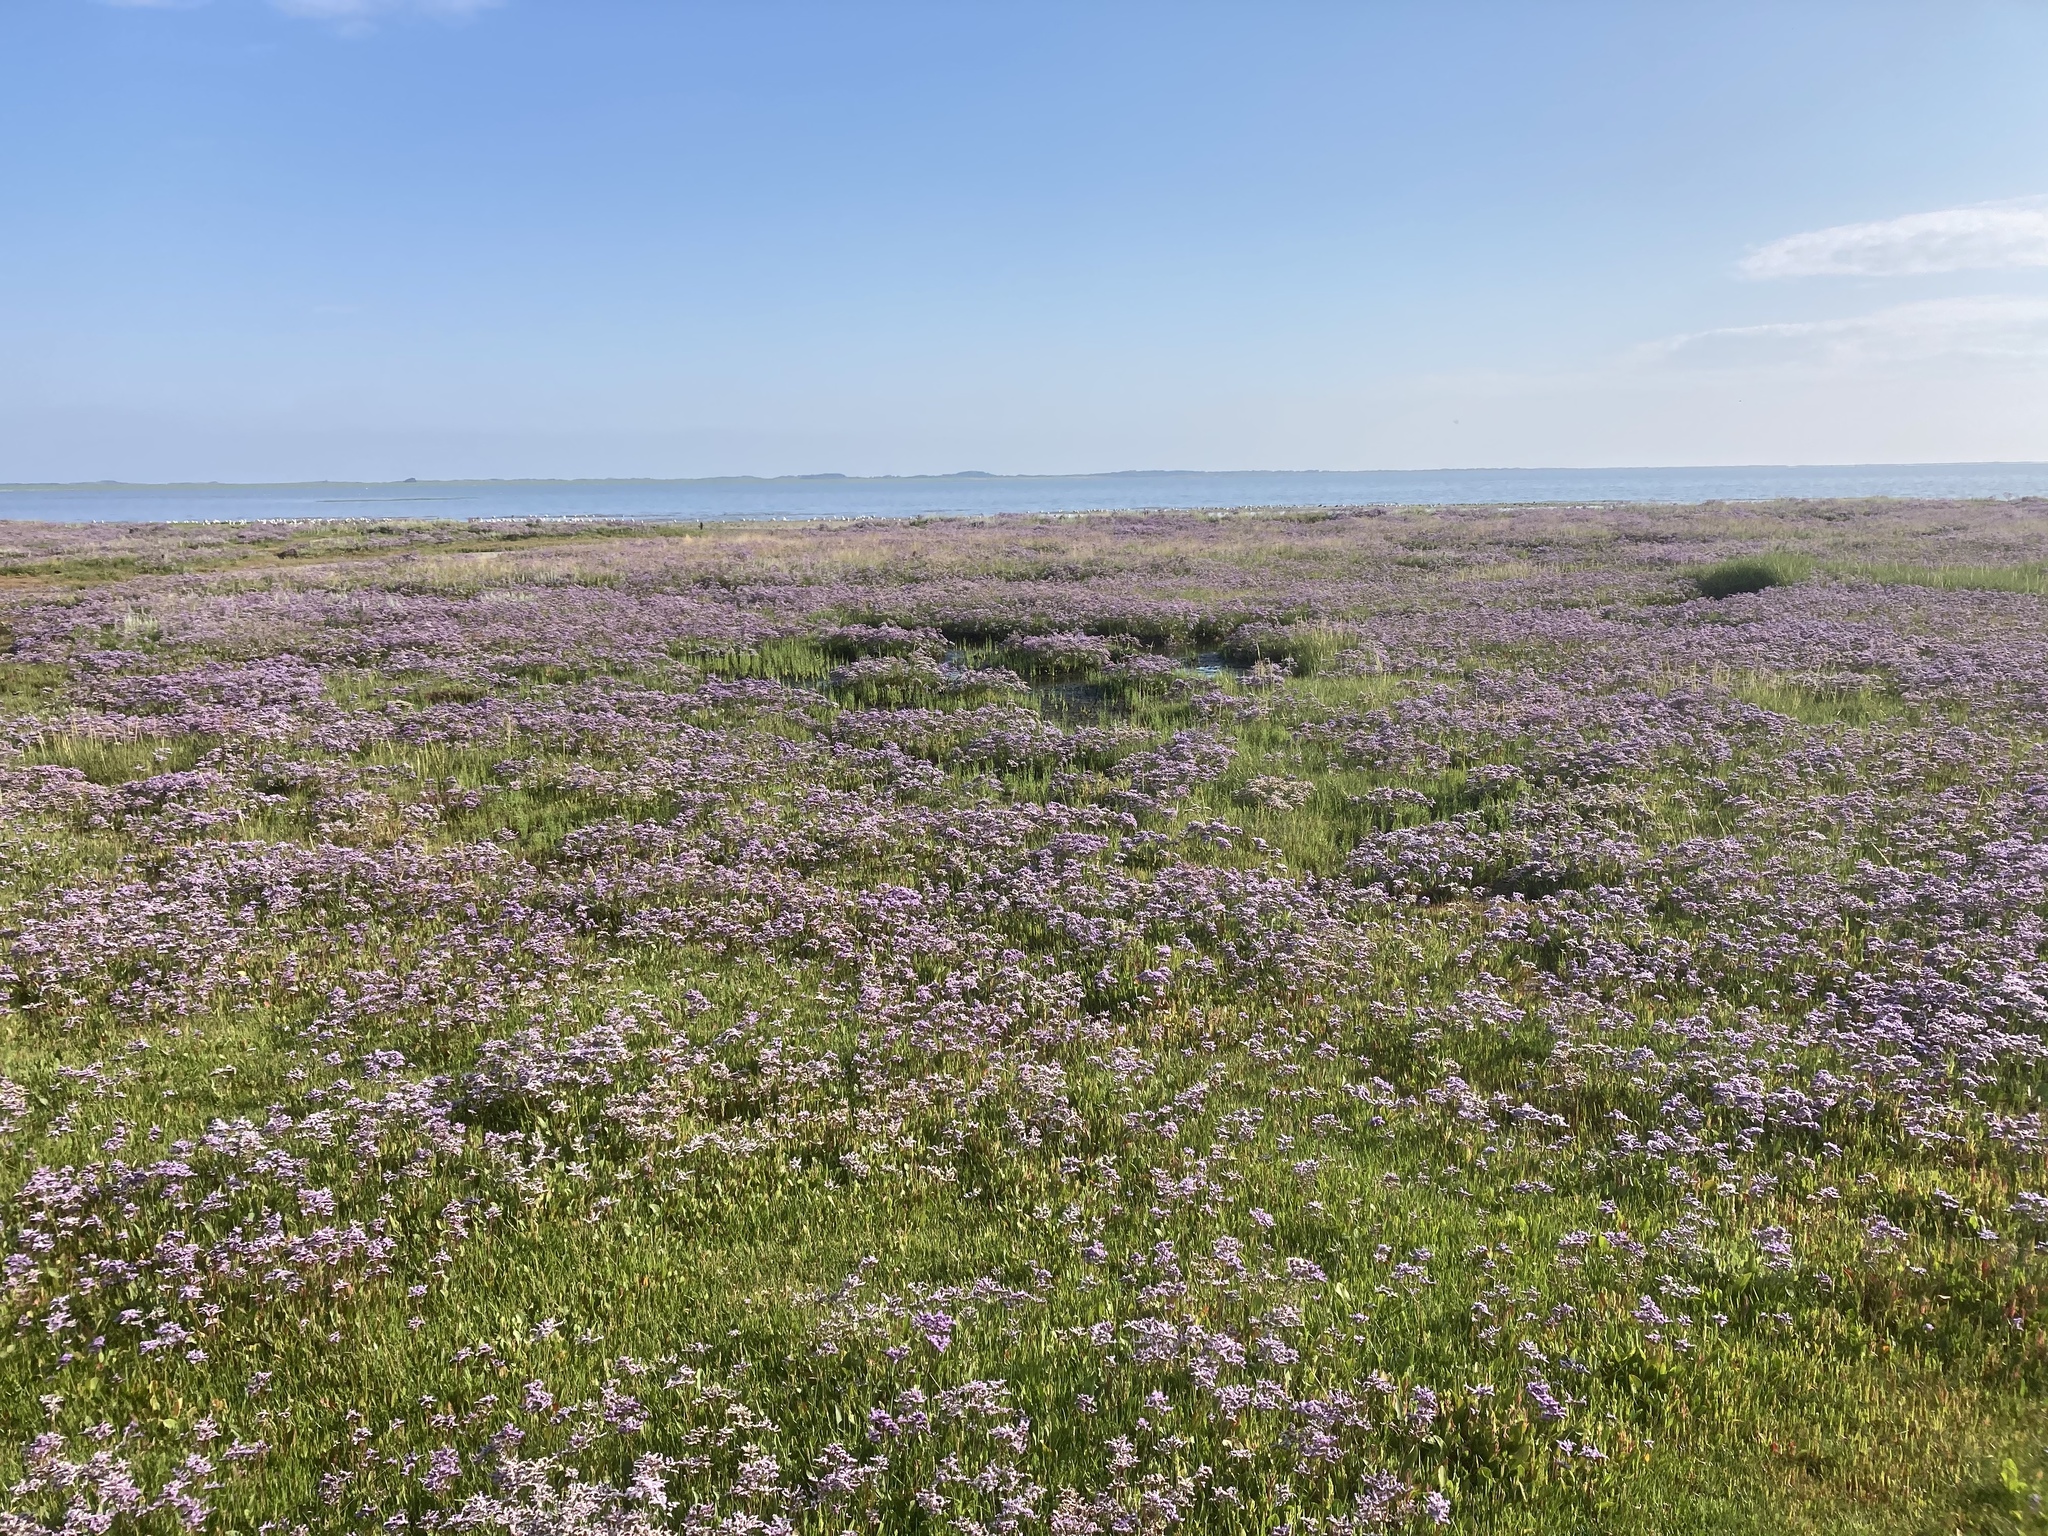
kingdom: Plantae
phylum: Tracheophyta
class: Magnoliopsida
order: Caryophyllales
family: Plumbaginaceae
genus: Limonium
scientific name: Limonium vulgare
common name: Common sea-lavender
